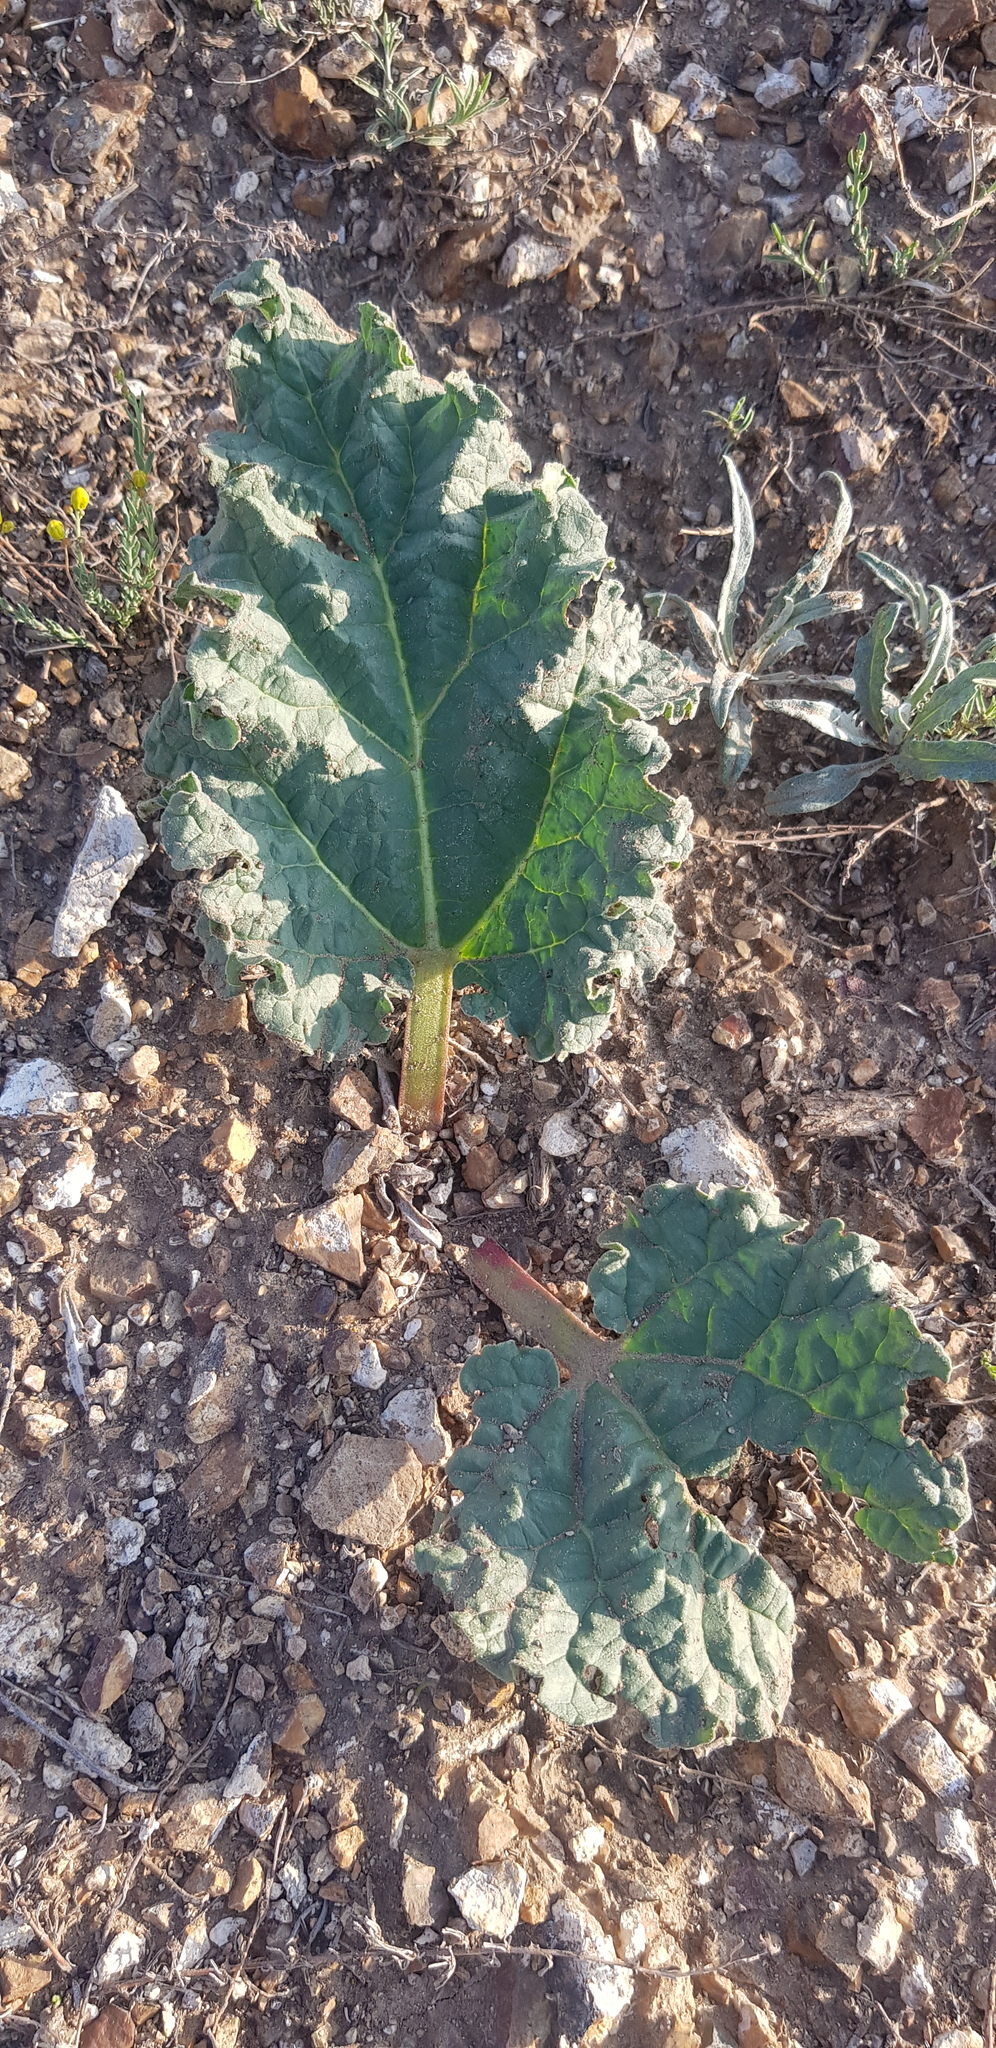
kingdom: Plantae
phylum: Tracheophyta
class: Magnoliopsida
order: Caryophyllales
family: Polygonaceae
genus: Rheum
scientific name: Rheum rhabarbarum
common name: Garden rhubarb
